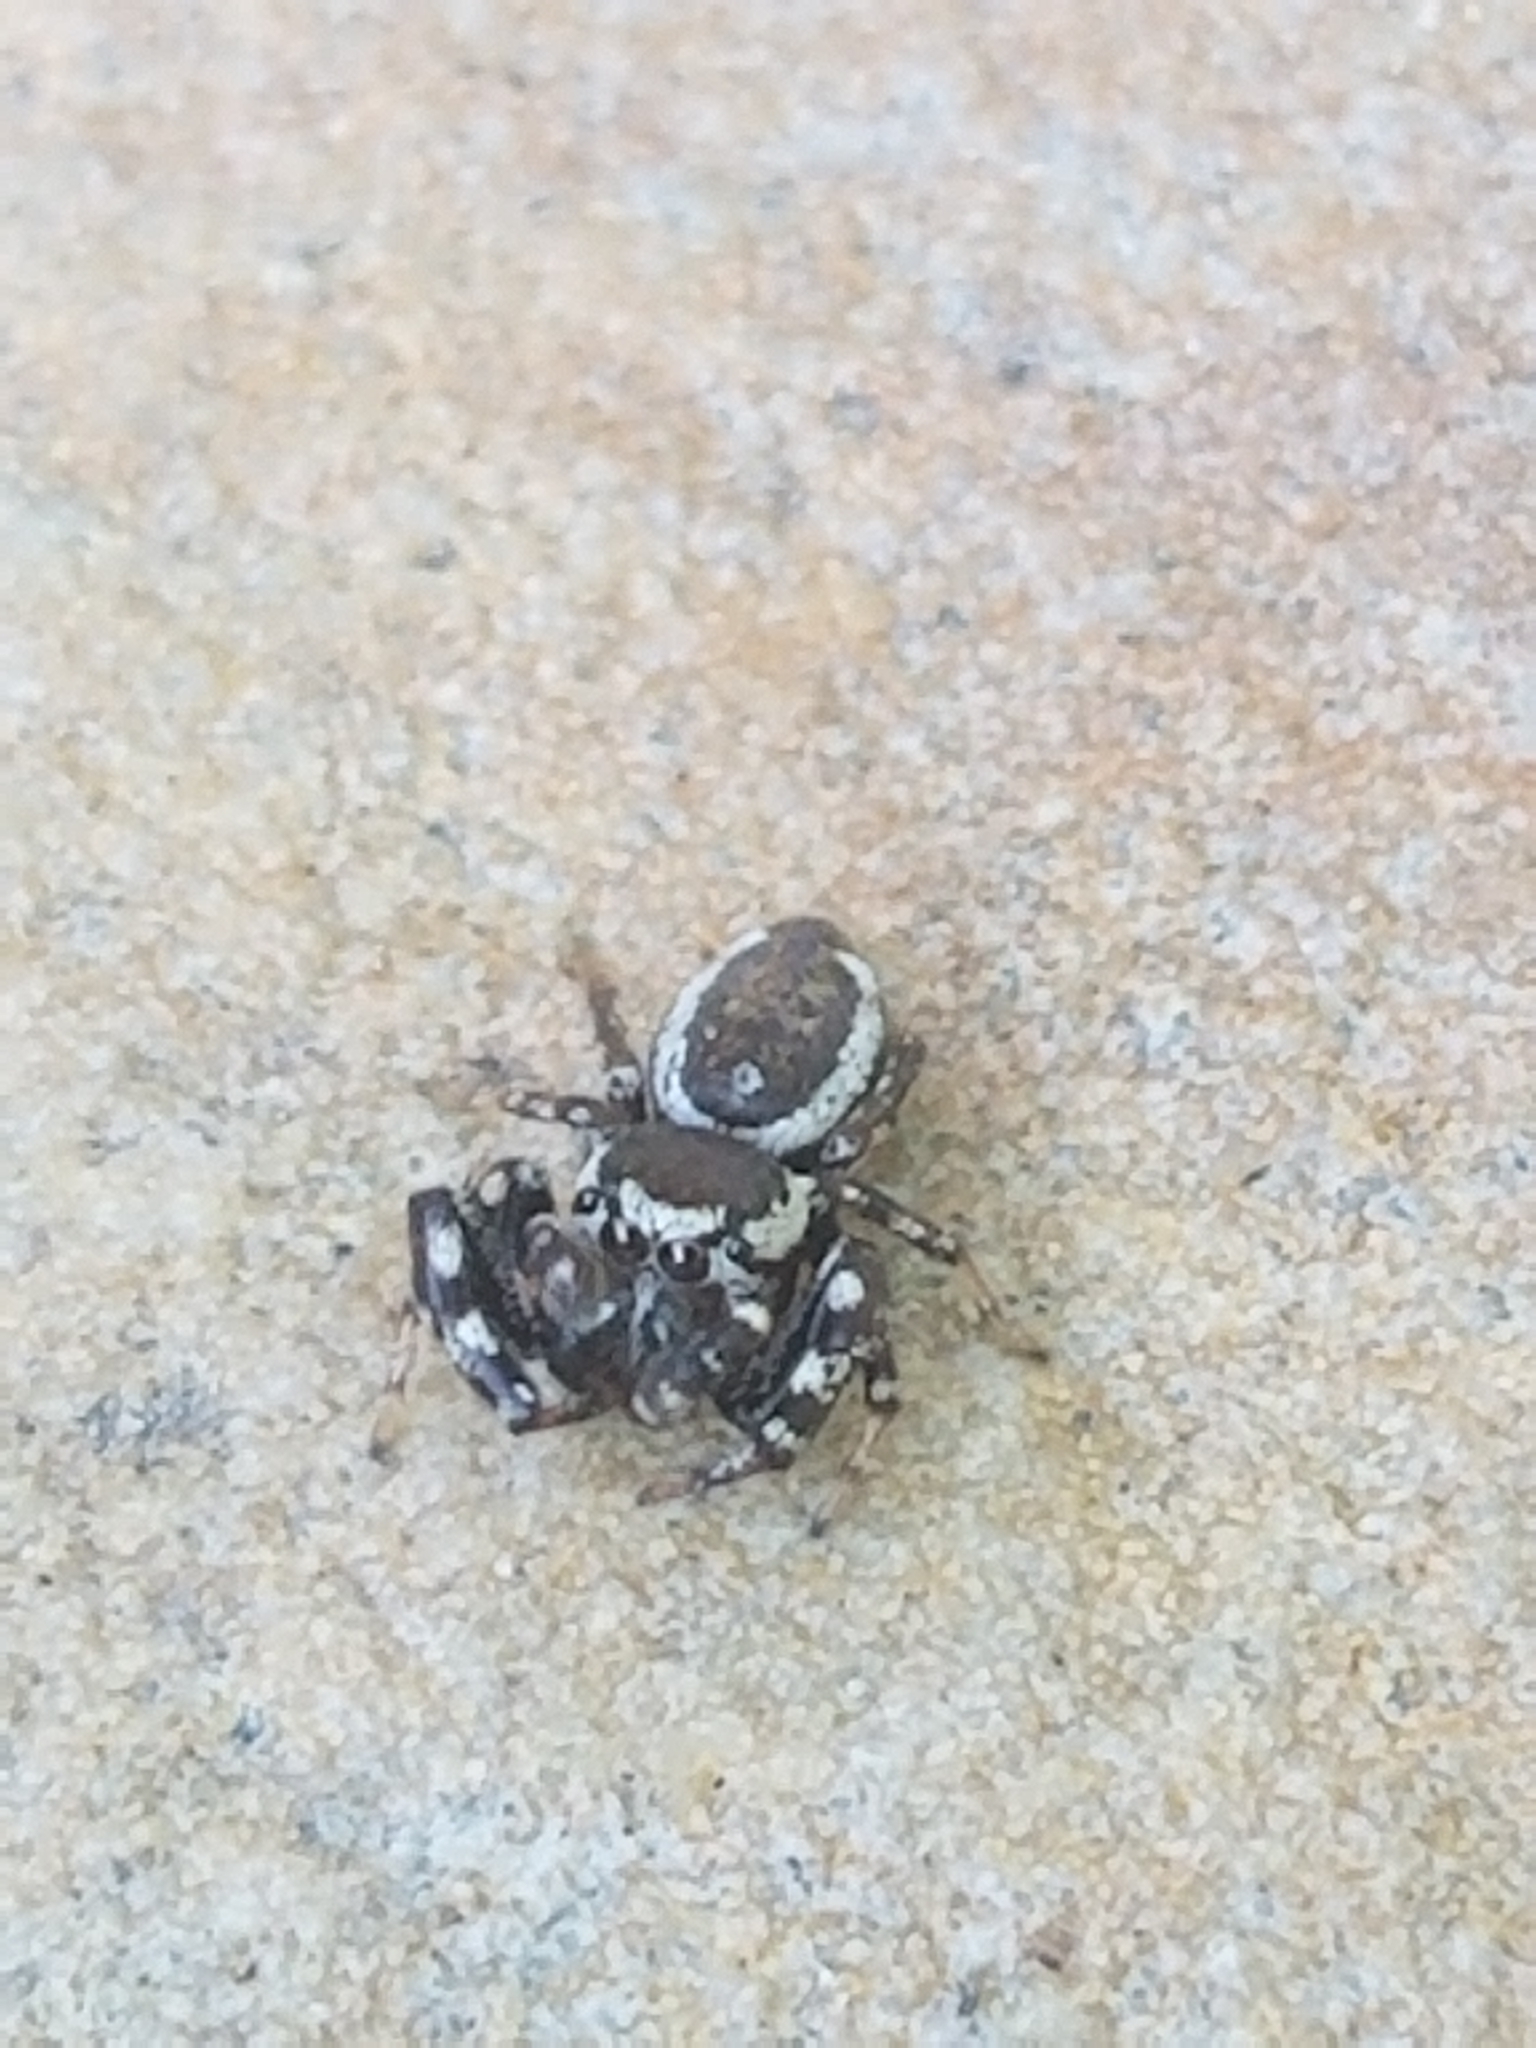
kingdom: Animalia
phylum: Arthropoda
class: Arachnida
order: Araneae
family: Salticidae
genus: Pelegrina
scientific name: Pelegrina proterva
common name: Common white-cheeked jumping spider
